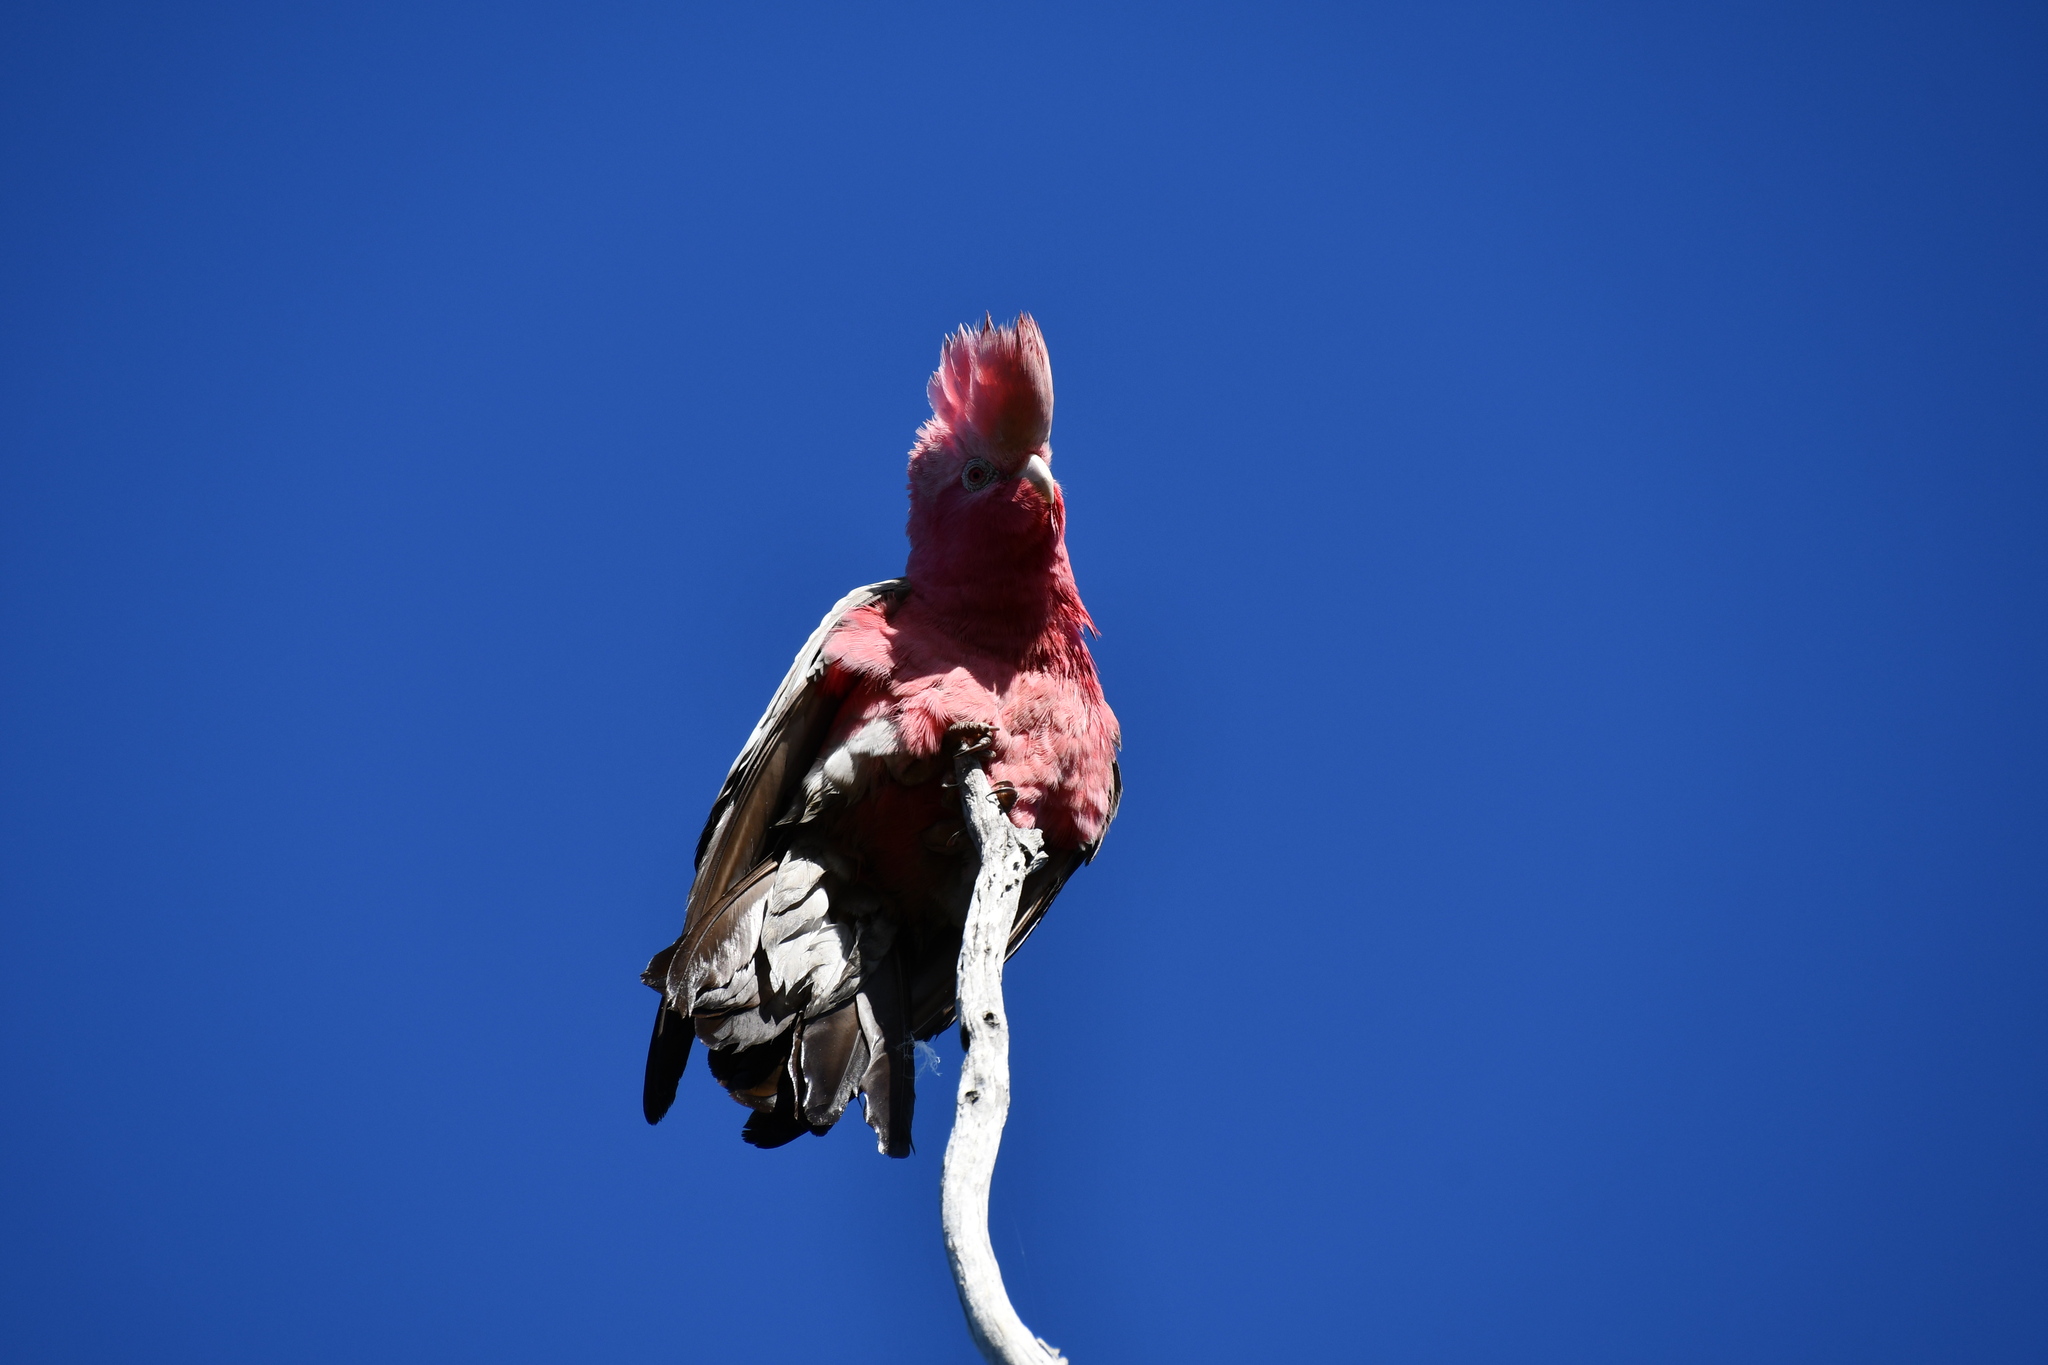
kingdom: Animalia
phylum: Chordata
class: Aves
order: Psittaciformes
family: Psittacidae
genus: Eolophus
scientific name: Eolophus roseicapilla
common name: Galah
